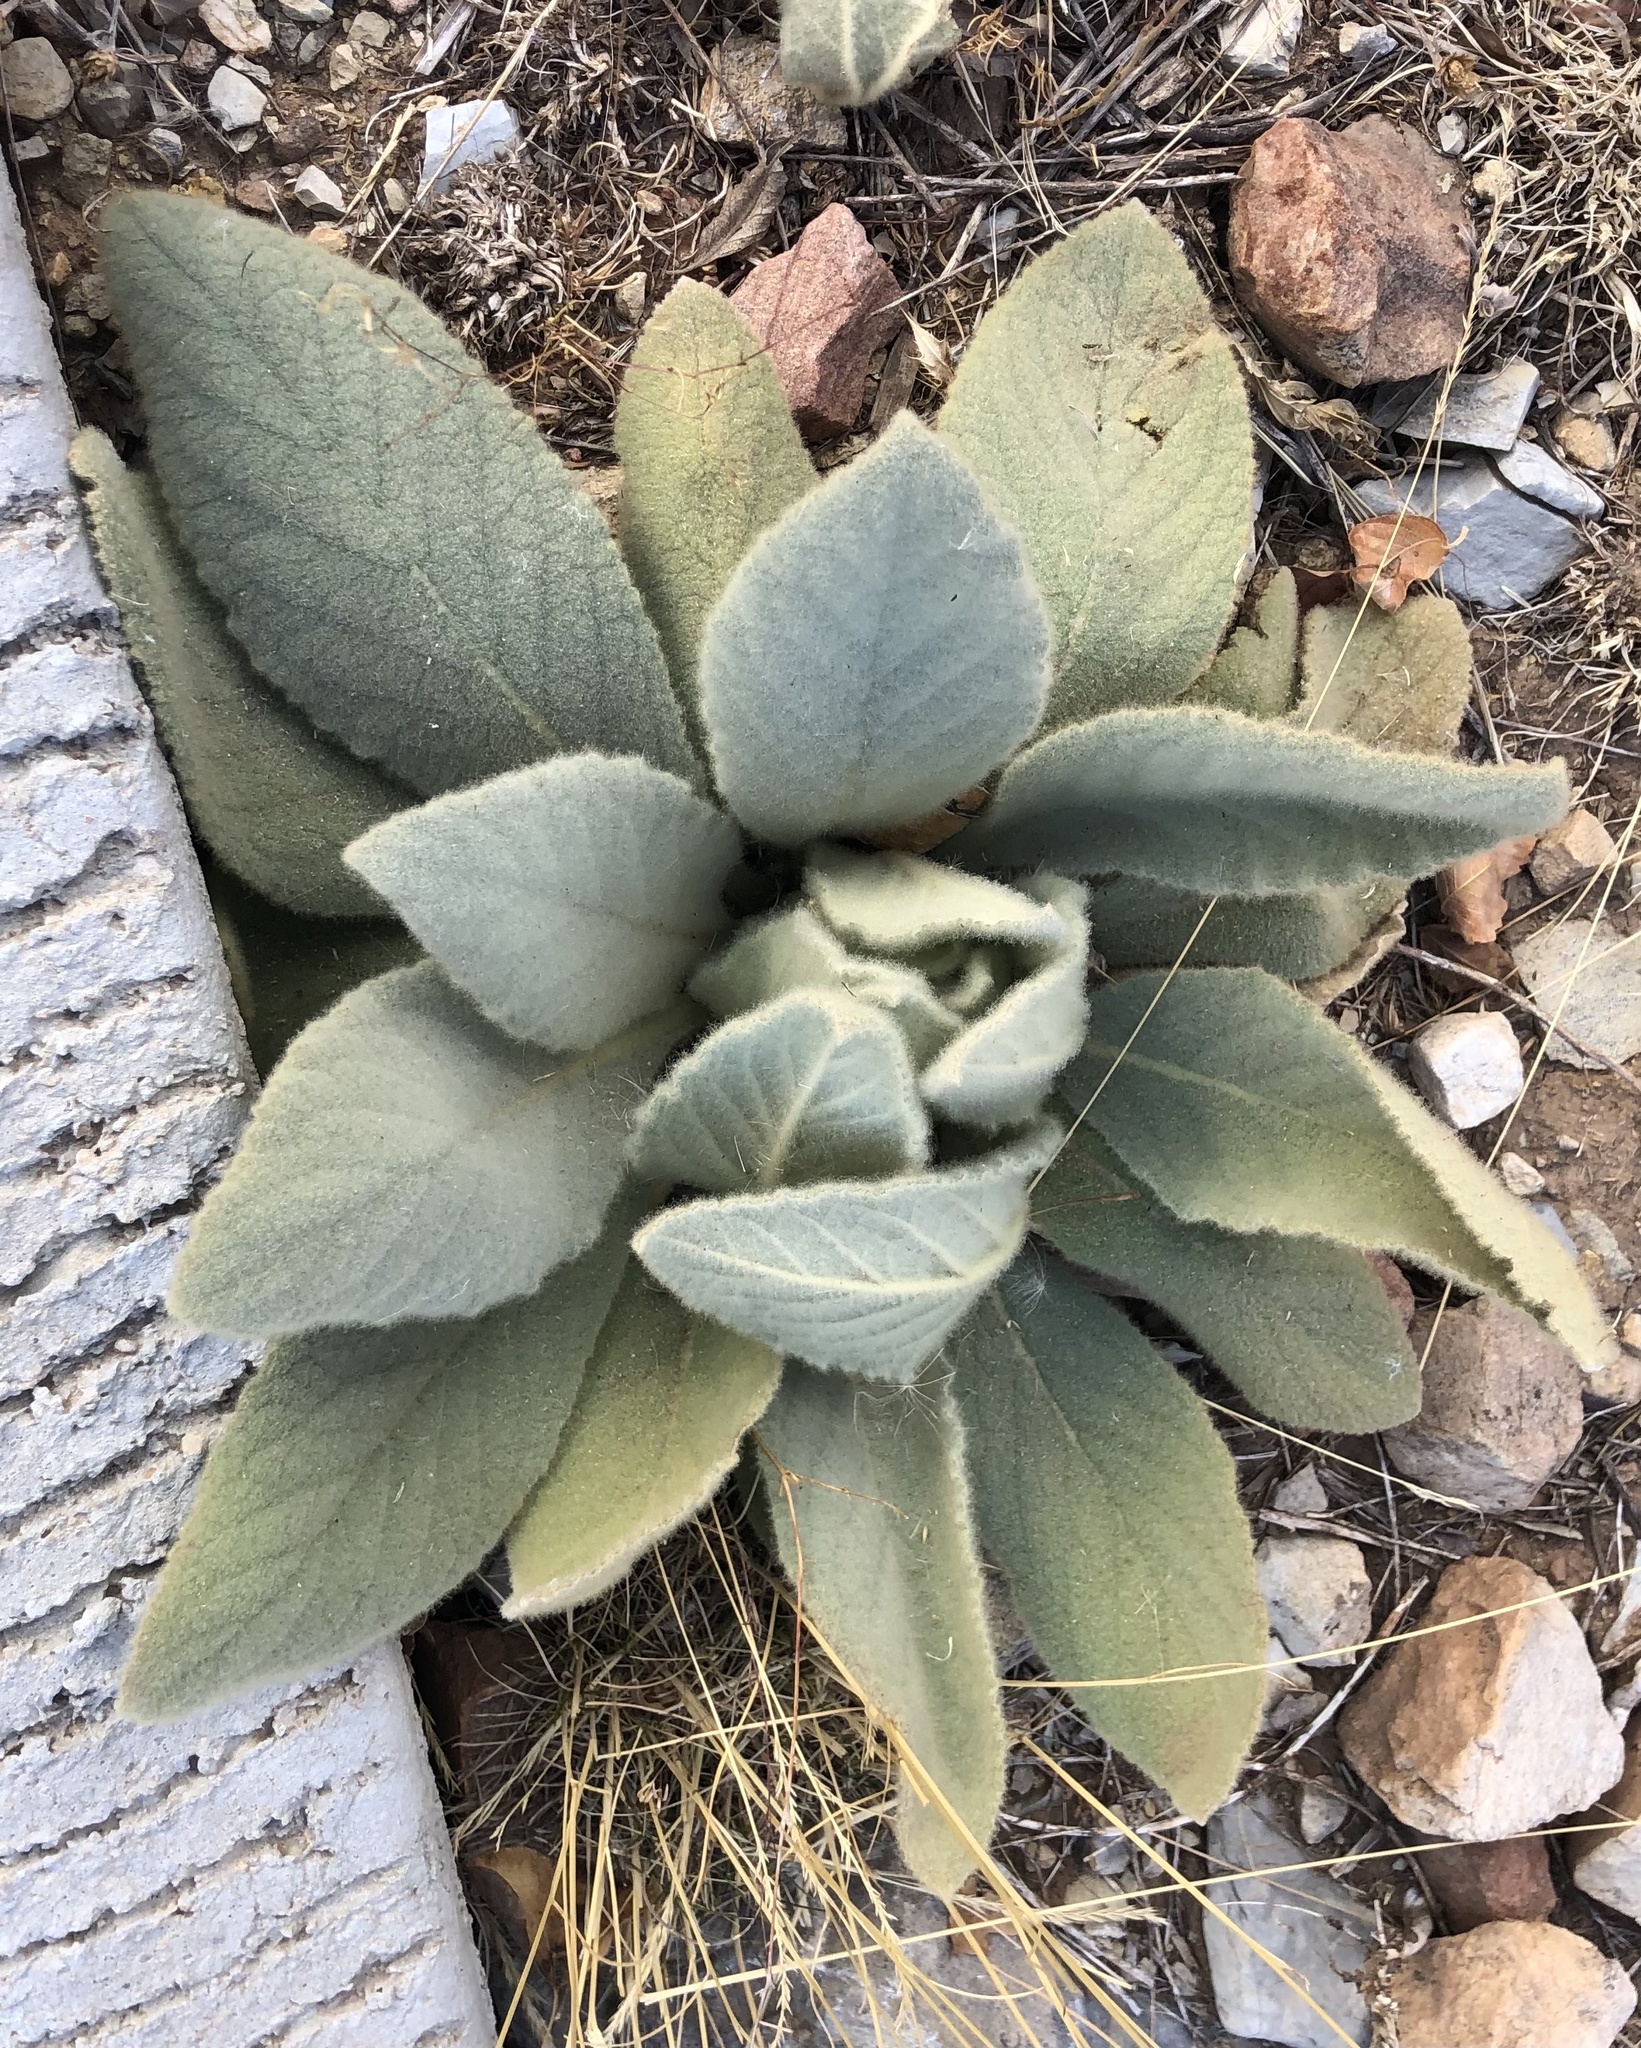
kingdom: Plantae
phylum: Tracheophyta
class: Magnoliopsida
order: Lamiales
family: Scrophulariaceae
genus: Verbascum
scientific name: Verbascum thapsus
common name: Common mullein
